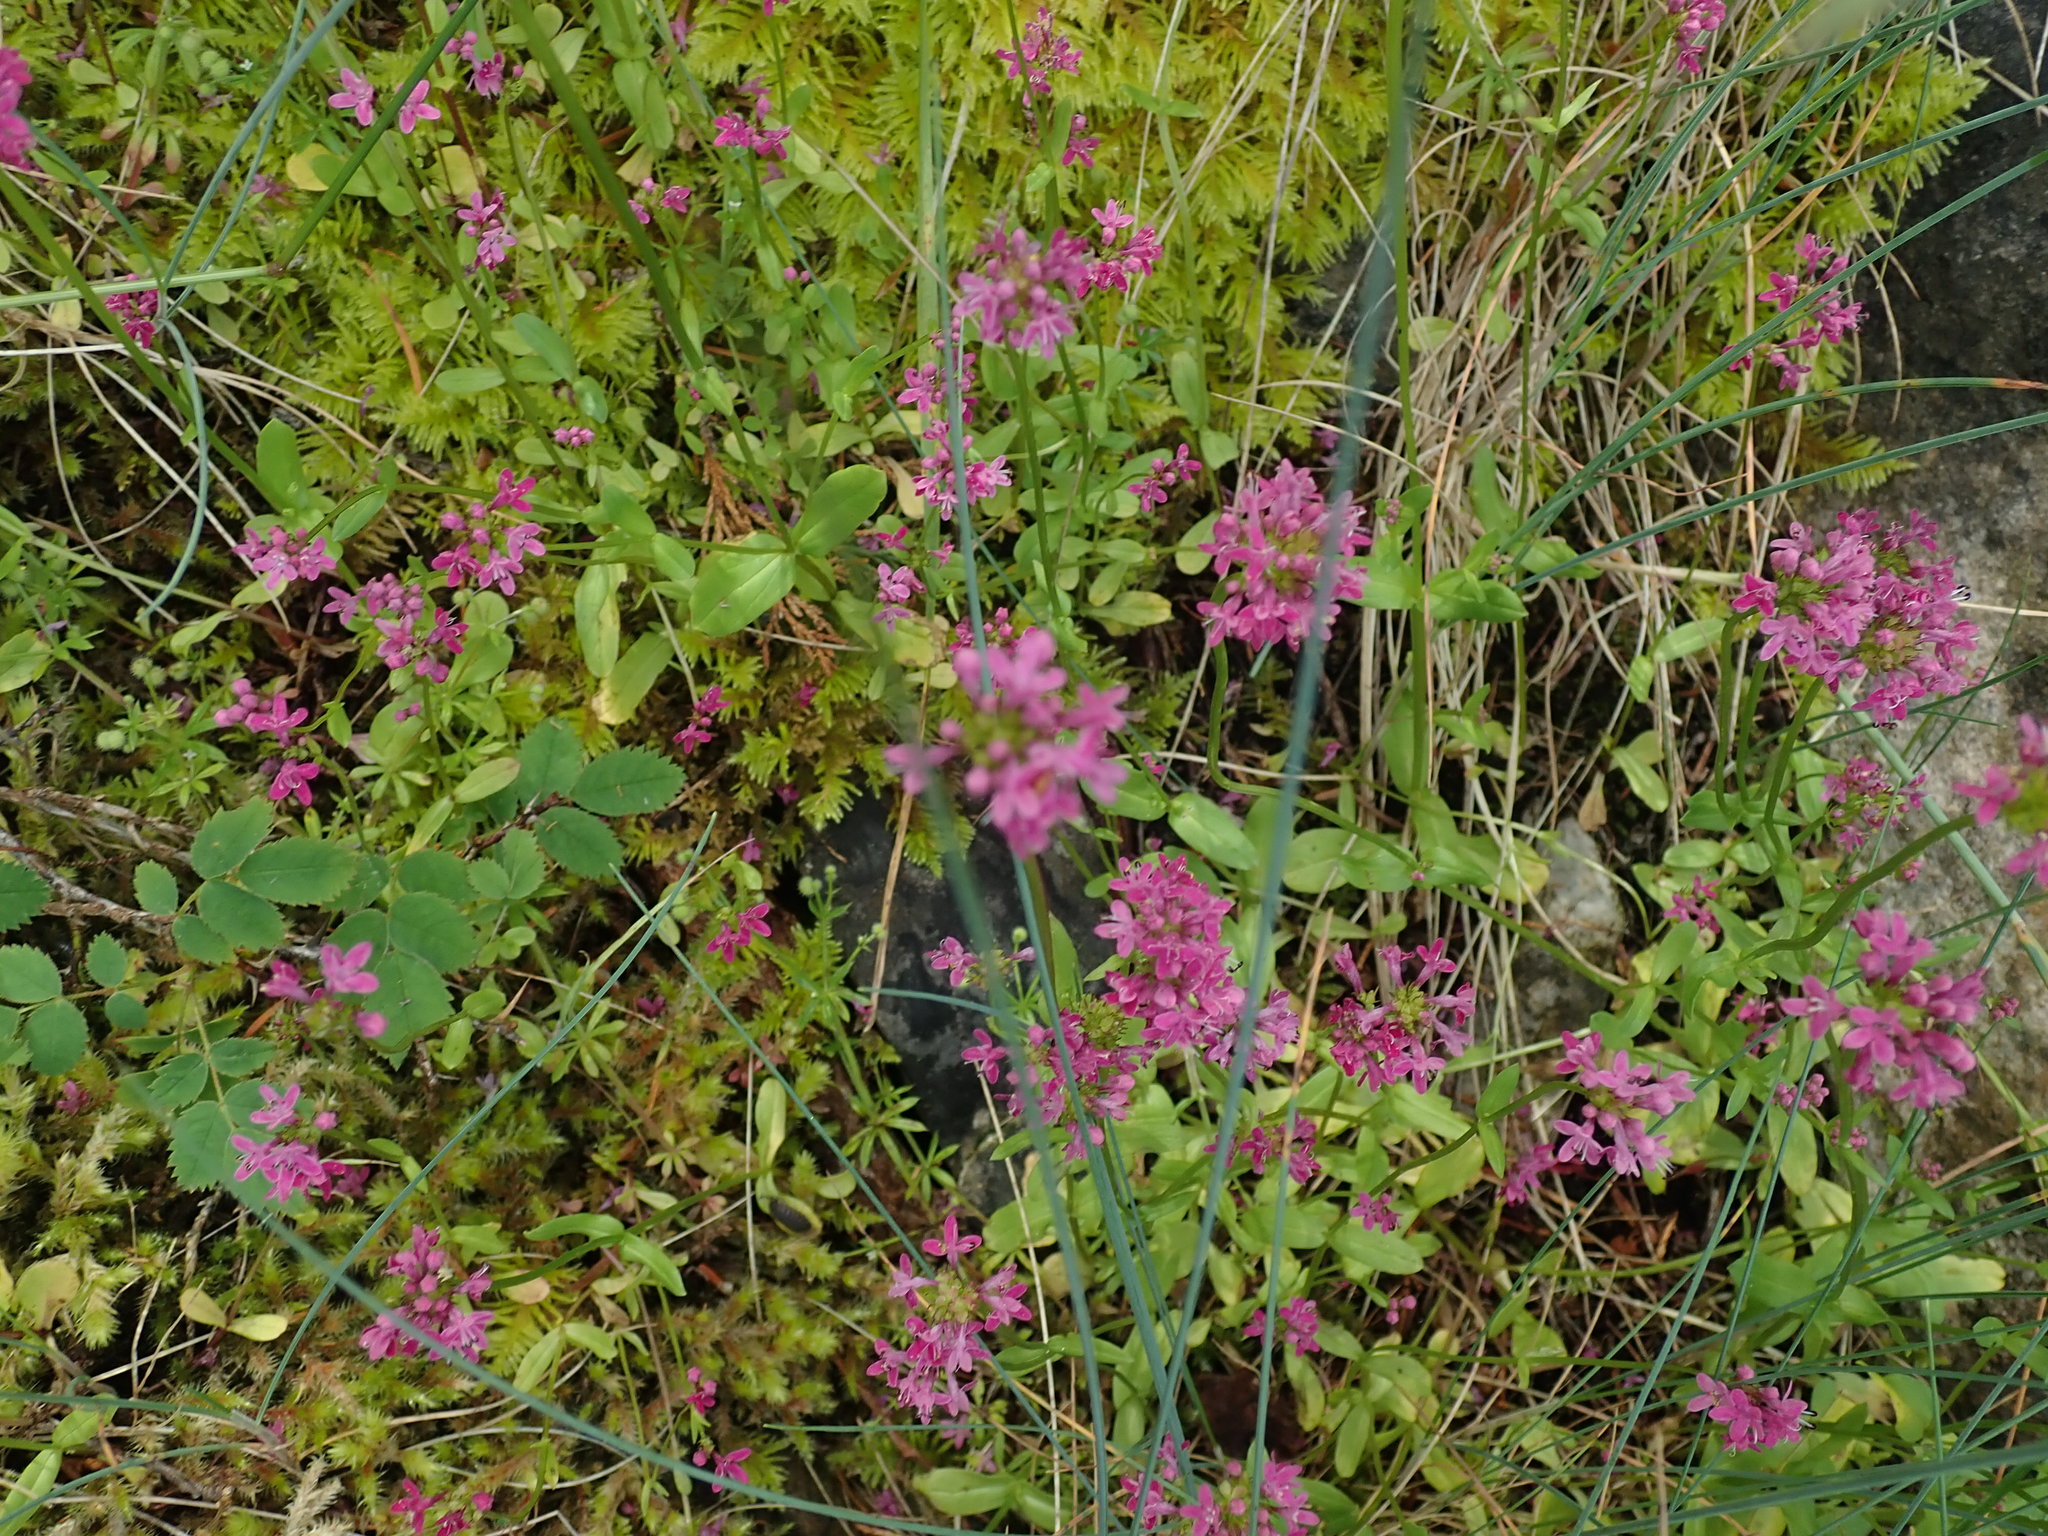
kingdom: Plantae
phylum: Tracheophyta
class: Magnoliopsida
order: Dipsacales
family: Caprifoliaceae
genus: Plectritis
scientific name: Plectritis congesta
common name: Pink plectritis
